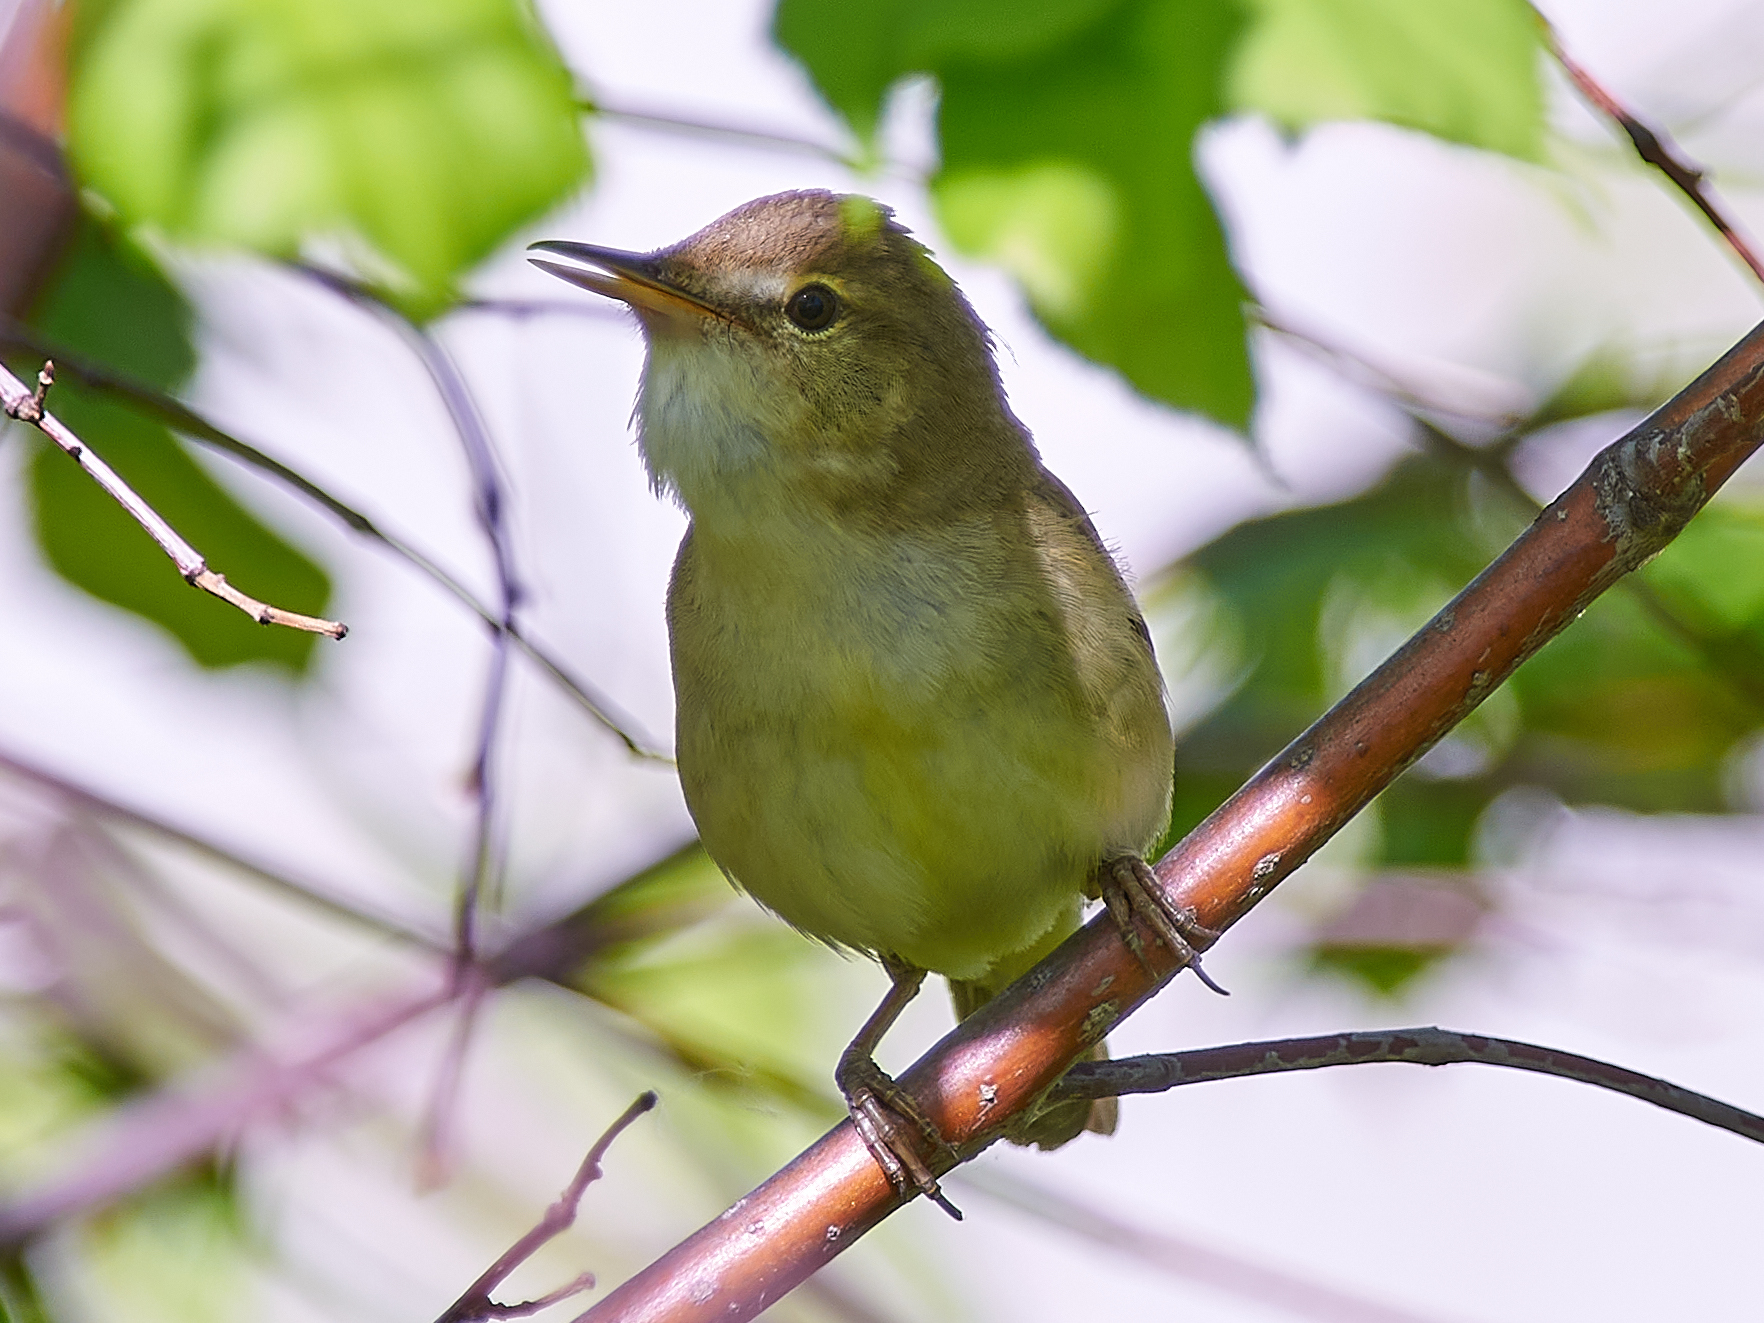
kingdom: Animalia
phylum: Chordata
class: Aves
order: Passeriformes
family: Acrocephalidae
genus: Acrocephalus
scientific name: Acrocephalus dumetorum
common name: Blyth's reed warbler
